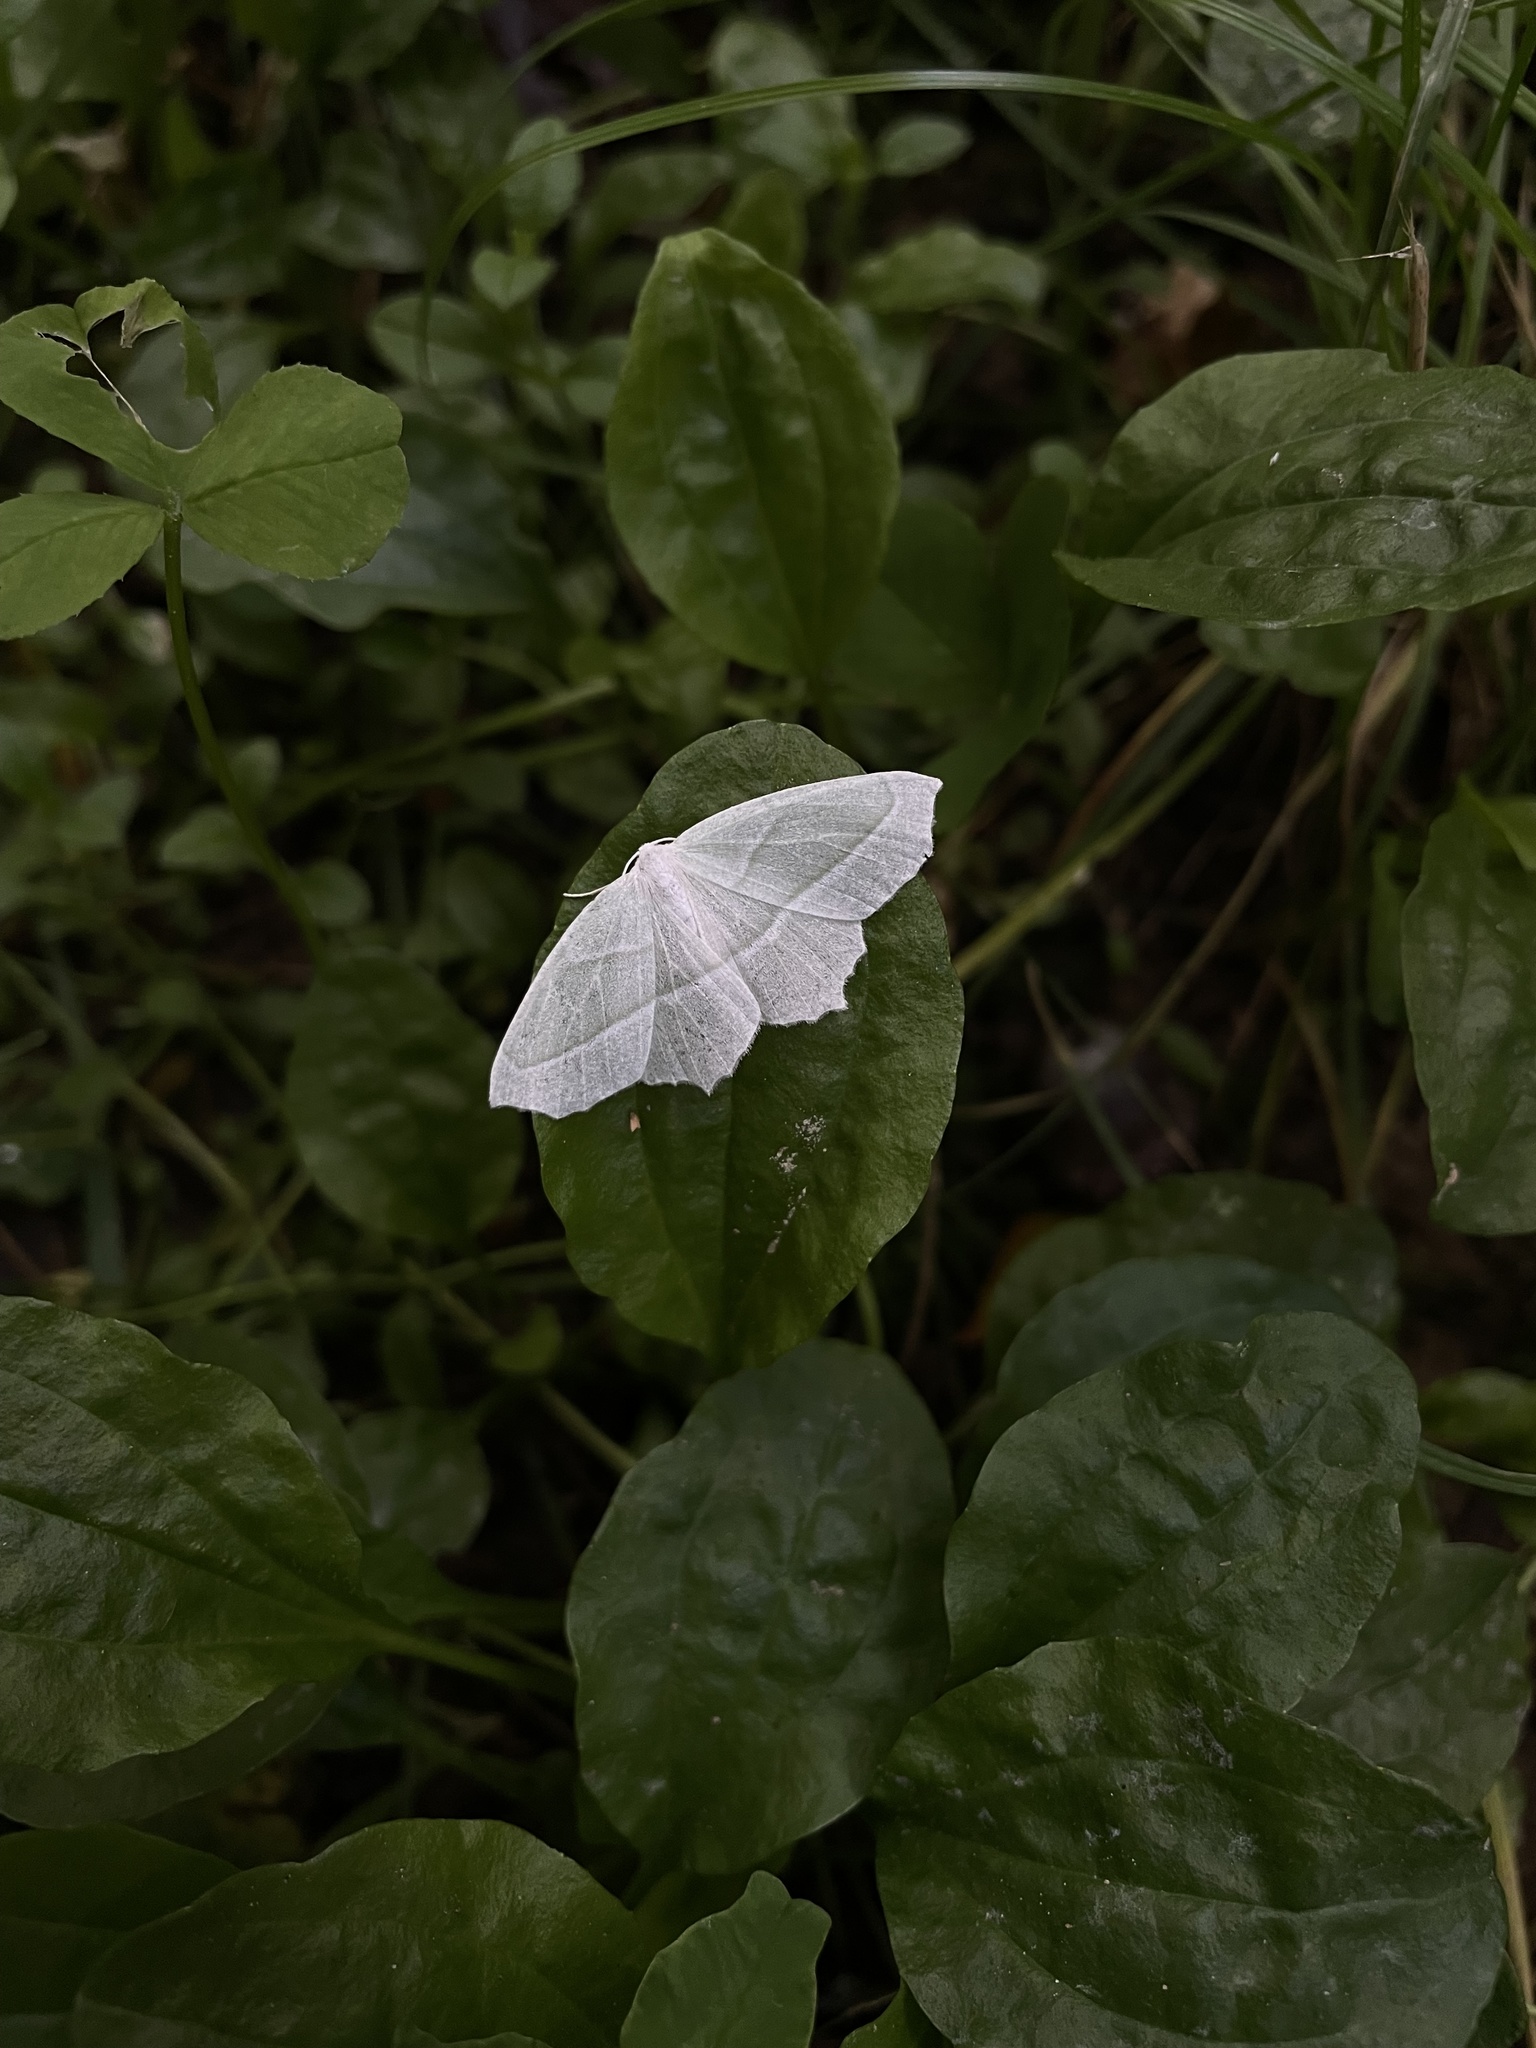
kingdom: Animalia
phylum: Arthropoda
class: Insecta
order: Lepidoptera
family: Geometridae
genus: Campaea
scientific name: Campaea perlata
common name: Fringed looper
